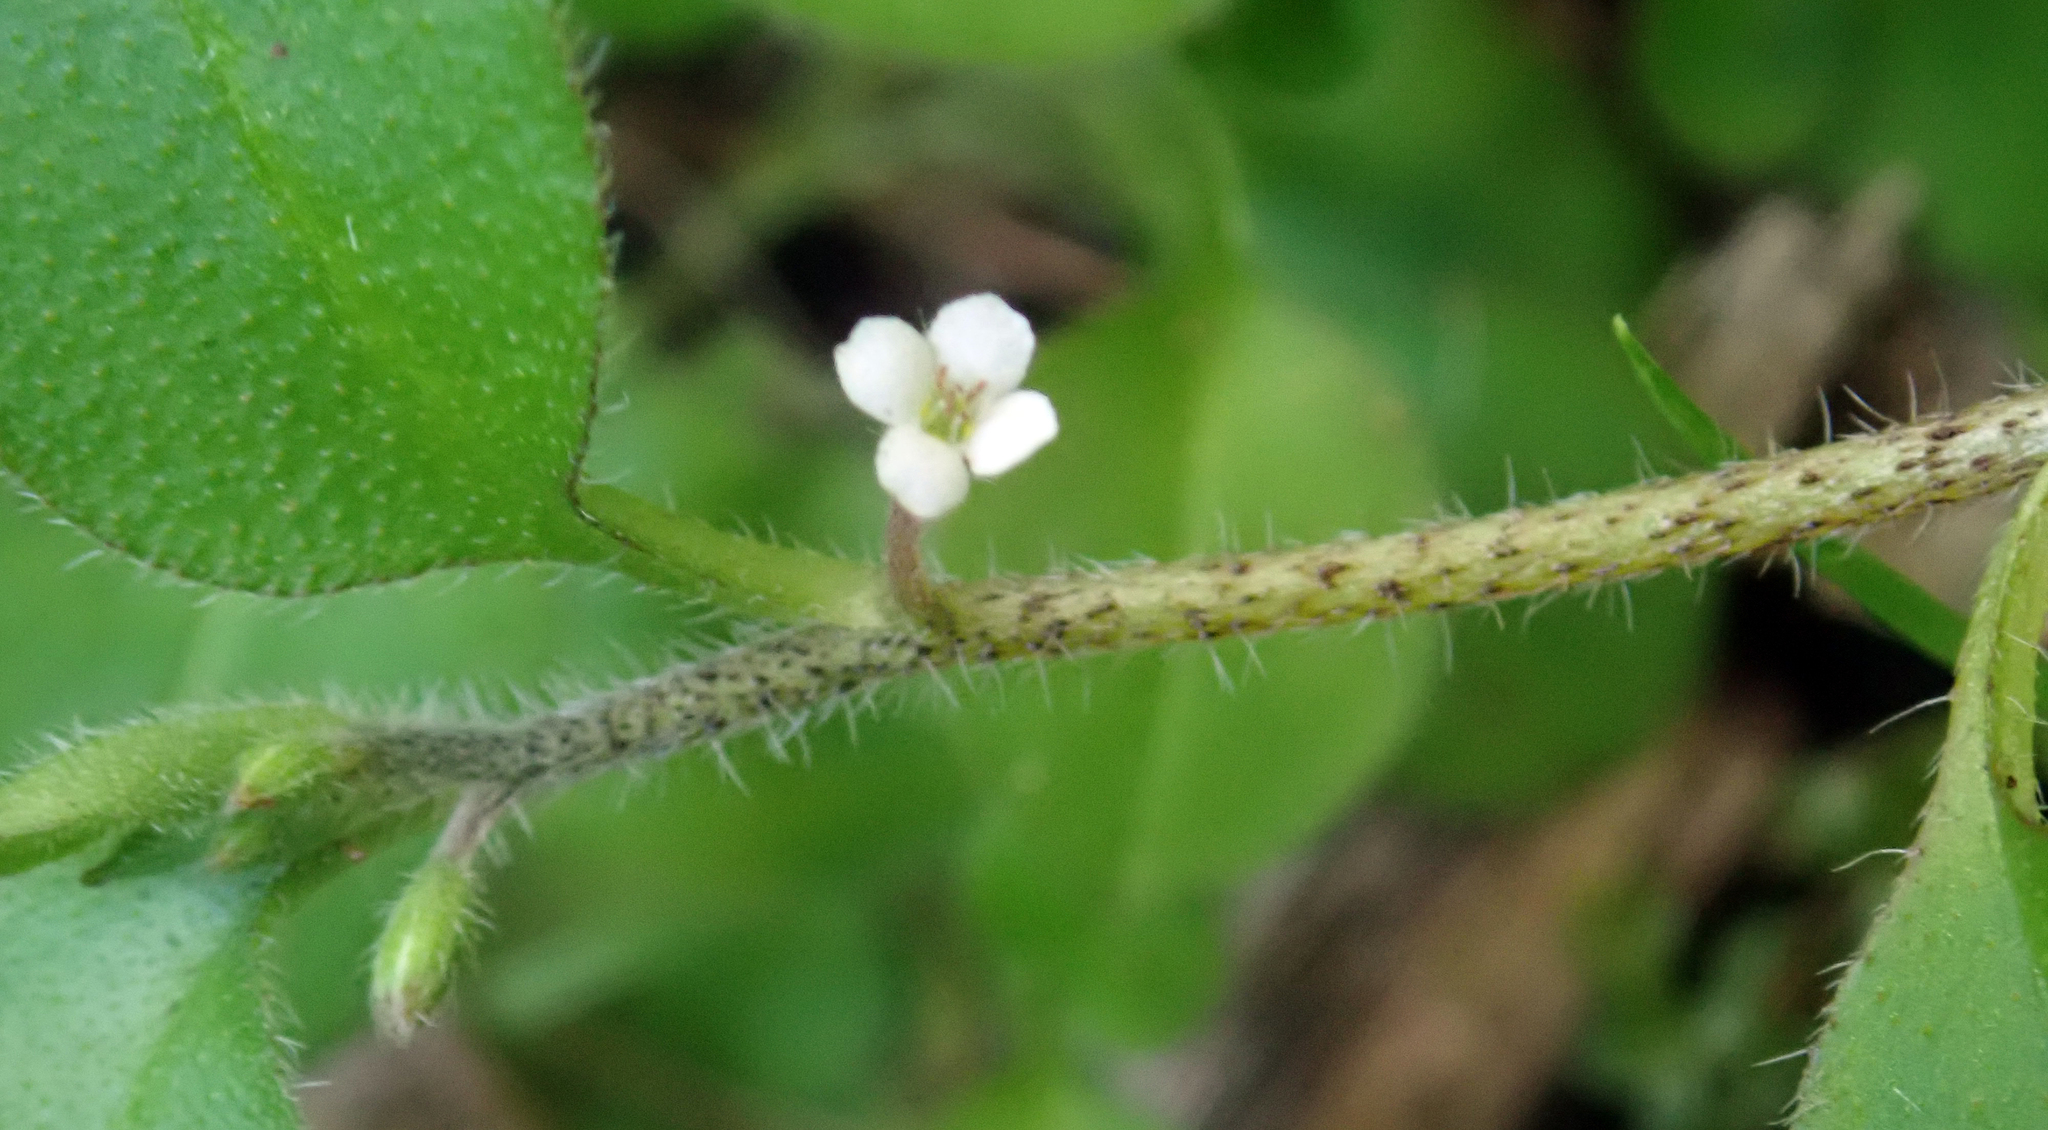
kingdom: Plantae
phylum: Tracheophyta
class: Magnoliopsida
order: Boraginales
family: Boraginaceae
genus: Myosotis
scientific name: Myosotis spathulata
